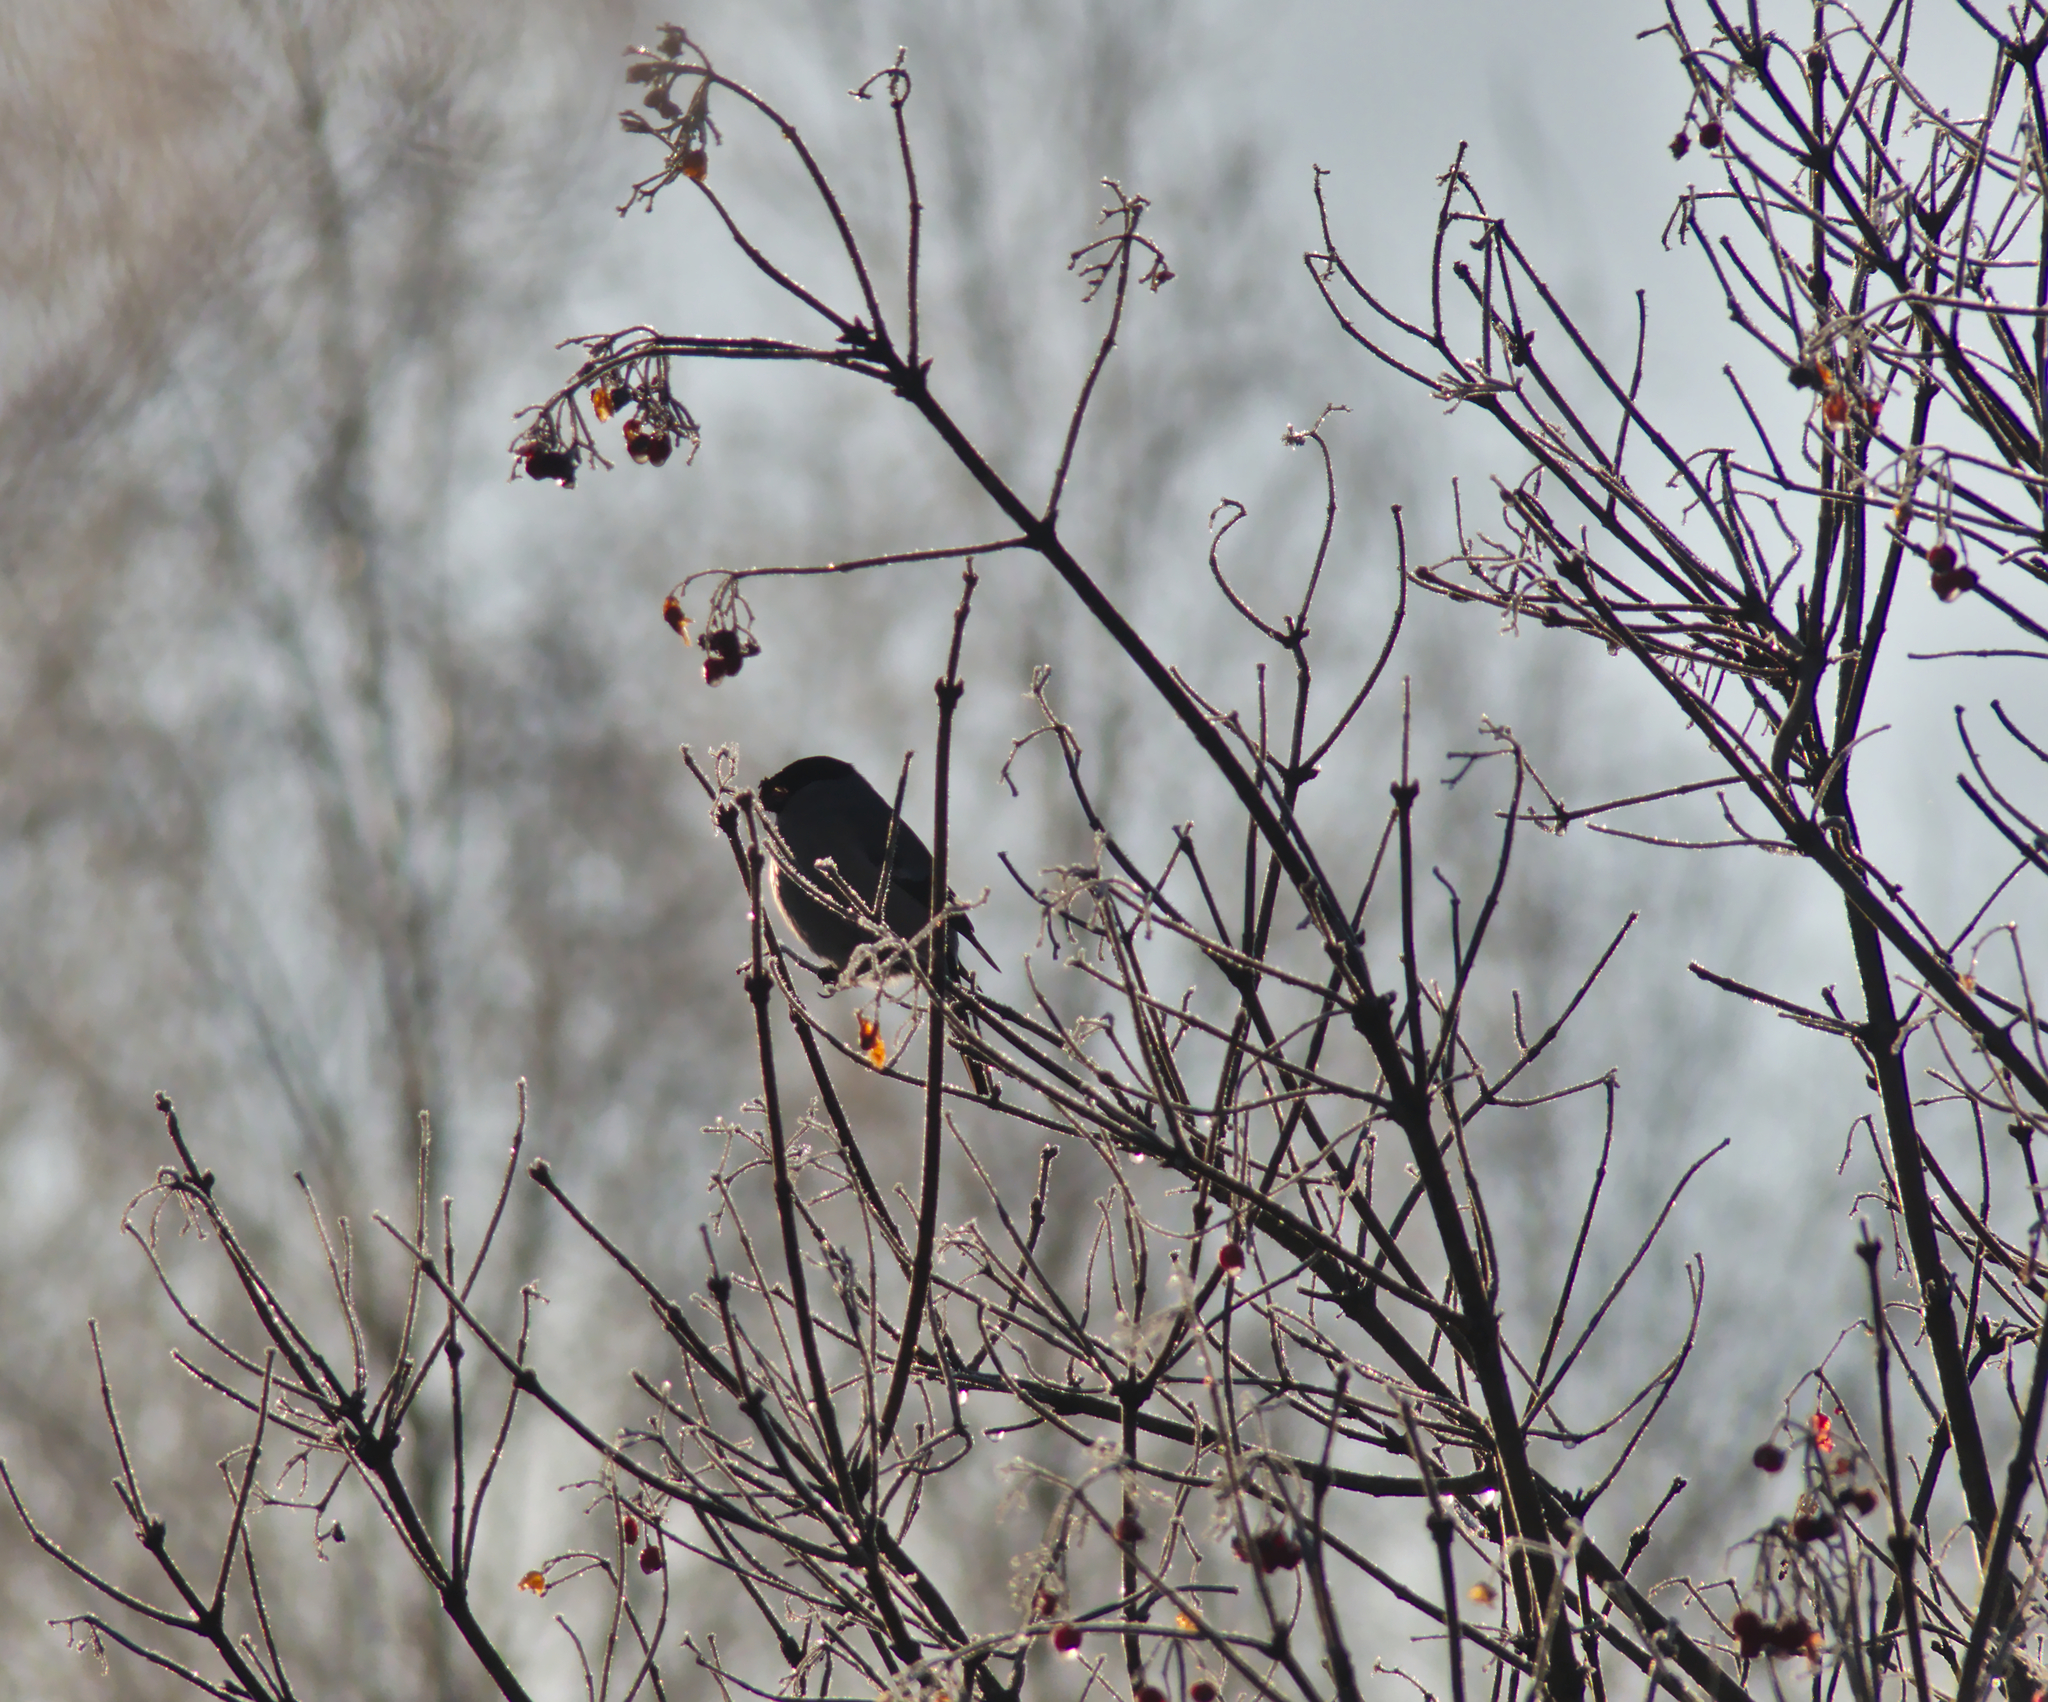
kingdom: Animalia
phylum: Chordata
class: Aves
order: Passeriformes
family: Fringillidae
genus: Pyrrhula
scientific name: Pyrrhula pyrrhula
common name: Eurasian bullfinch
